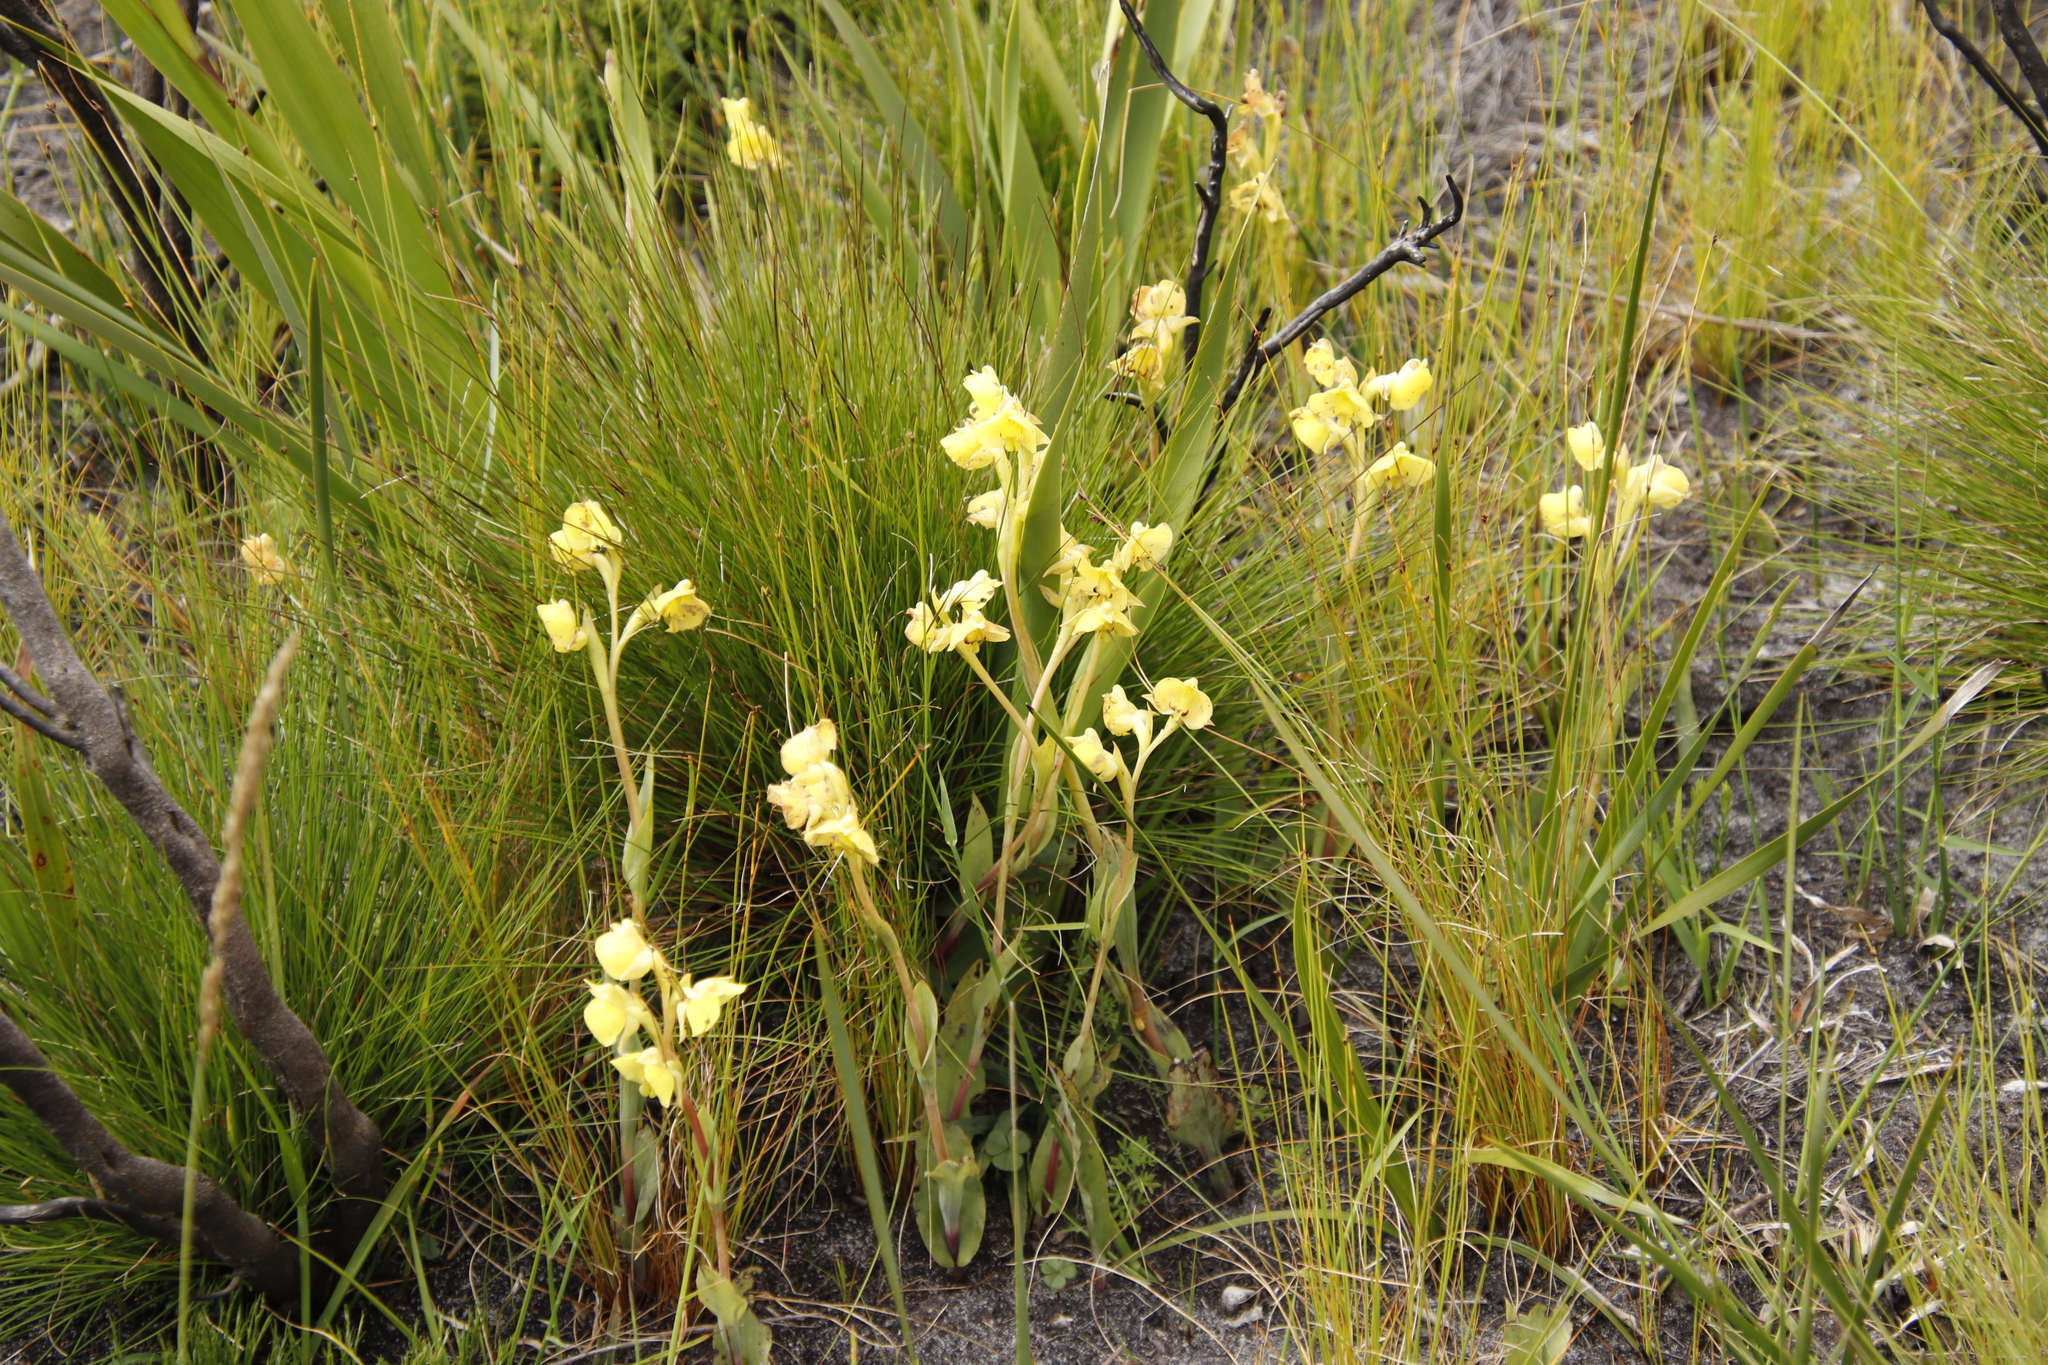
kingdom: Plantae
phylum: Tracheophyta
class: Liliopsida
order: Asparagales
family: Orchidaceae
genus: Pterygodium
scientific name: Pterygodium acutifolium
